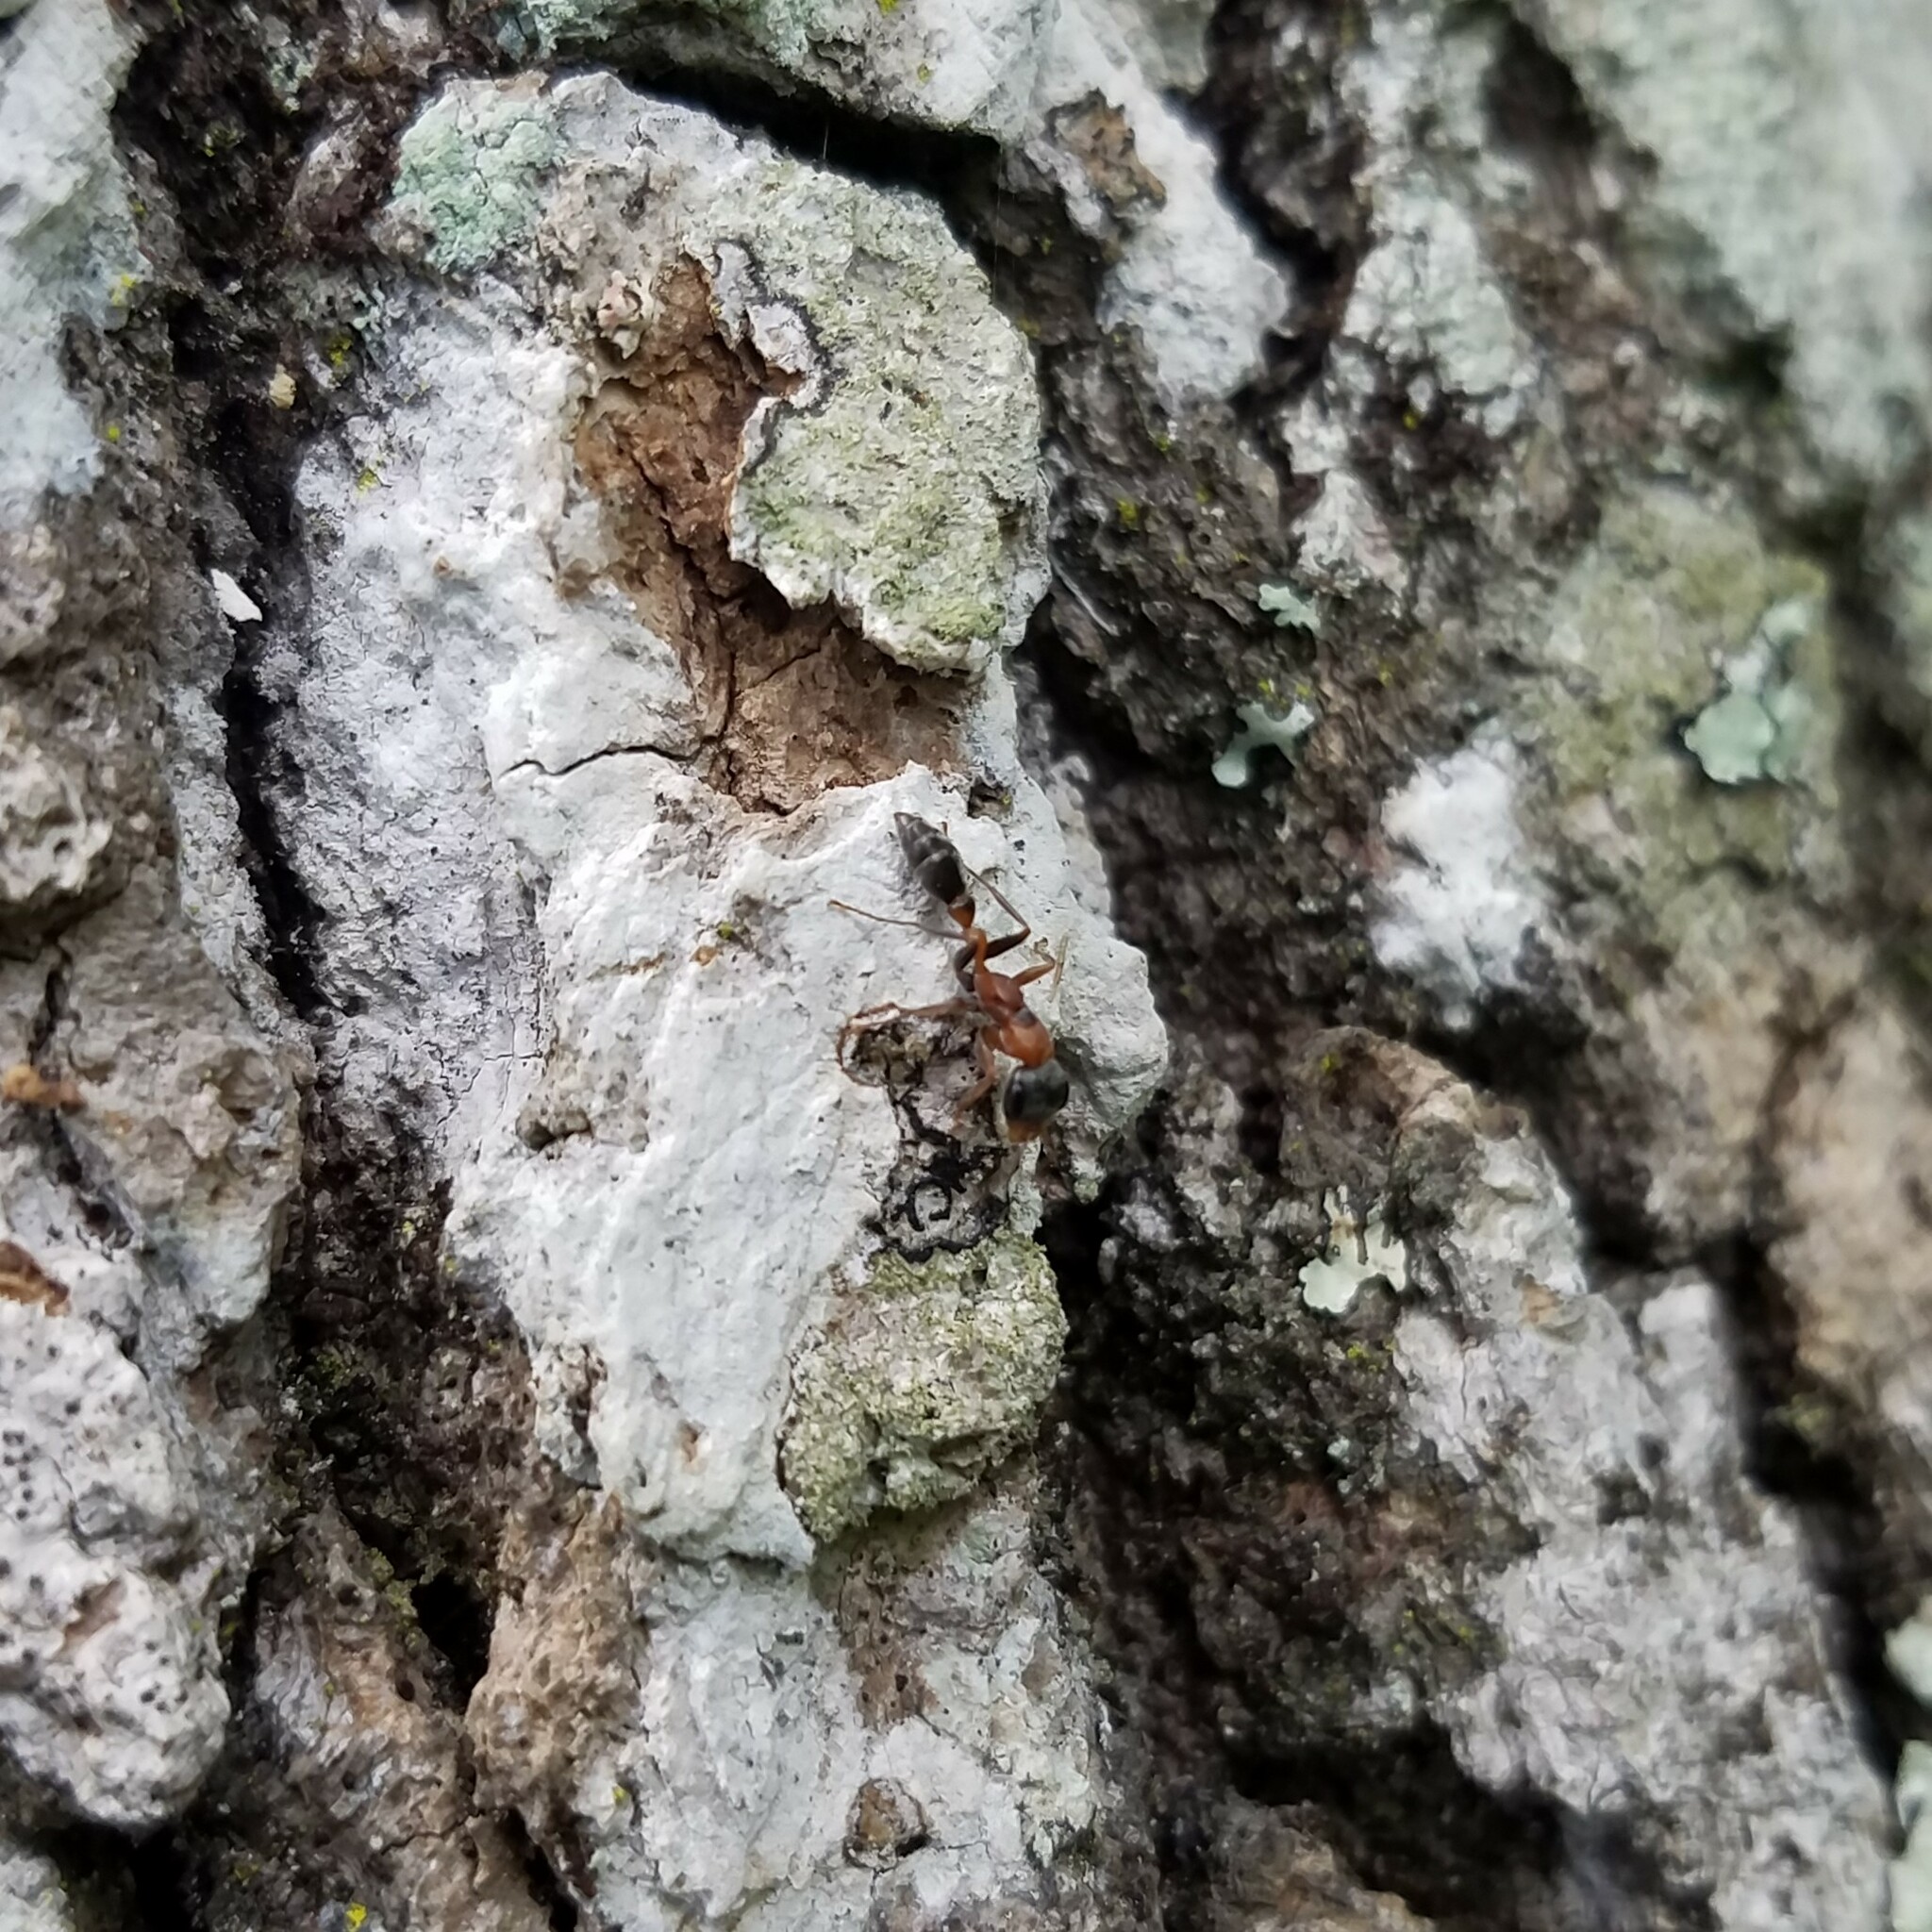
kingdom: Animalia
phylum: Arthropoda
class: Insecta
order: Hymenoptera
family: Formicidae
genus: Pseudomyrmex
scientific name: Pseudomyrmex gracilis
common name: Graceful twig ant
